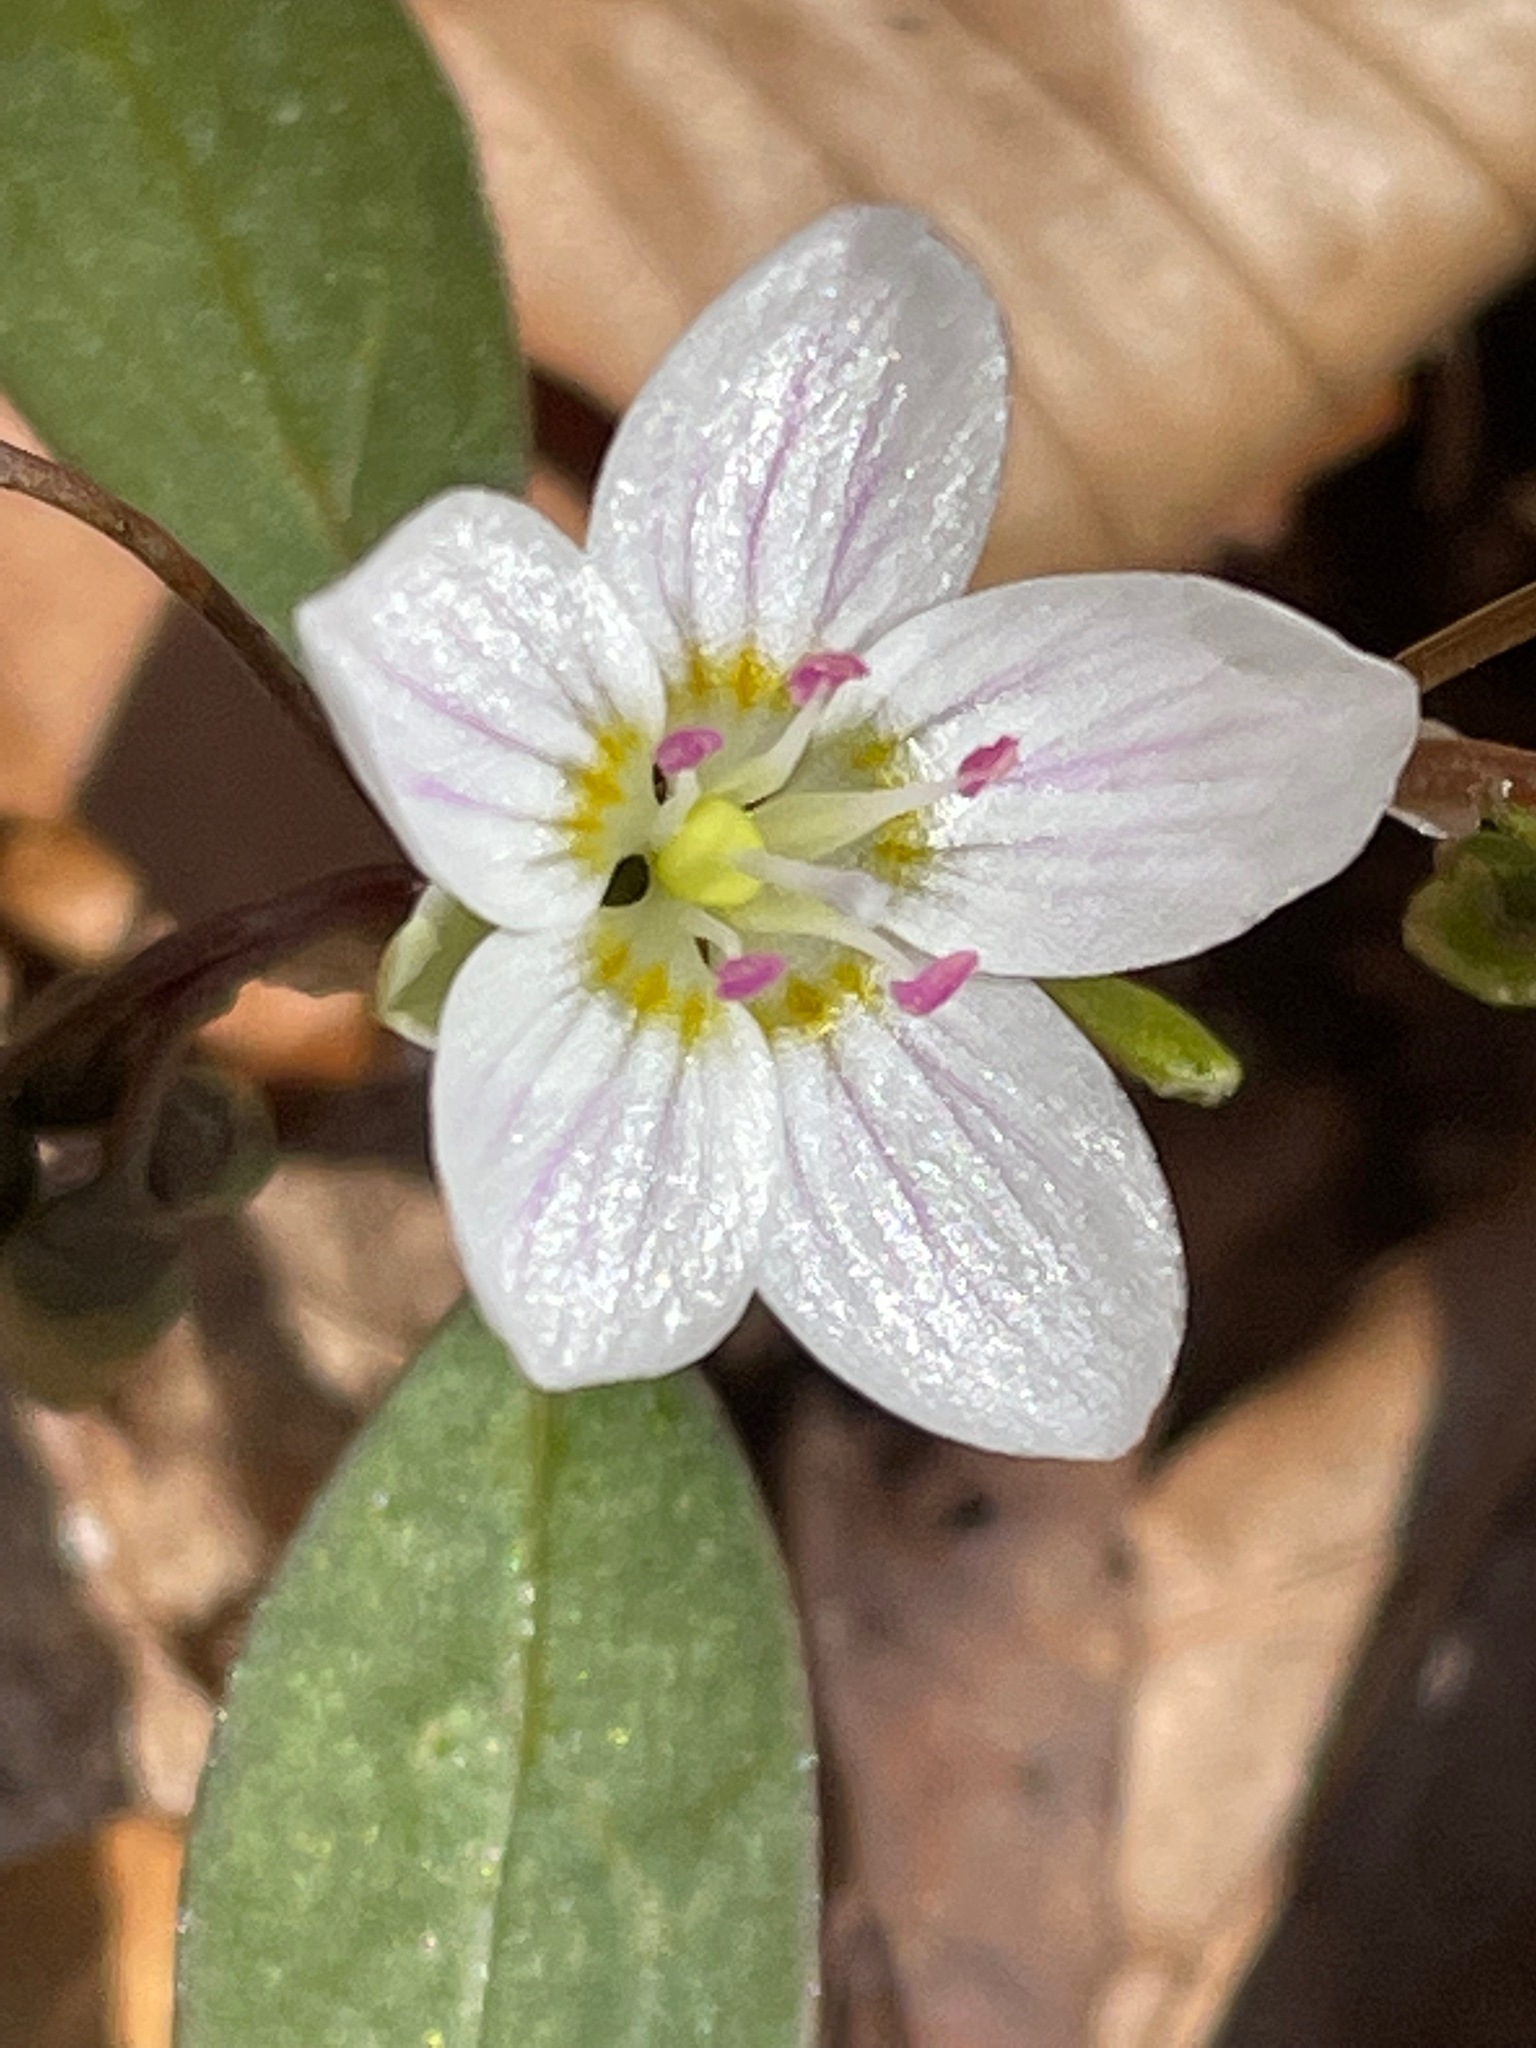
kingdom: Plantae
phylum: Tracheophyta
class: Magnoliopsida
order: Caryophyllales
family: Montiaceae
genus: Claytonia
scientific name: Claytonia caroliniana
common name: Carolina spring beauty
